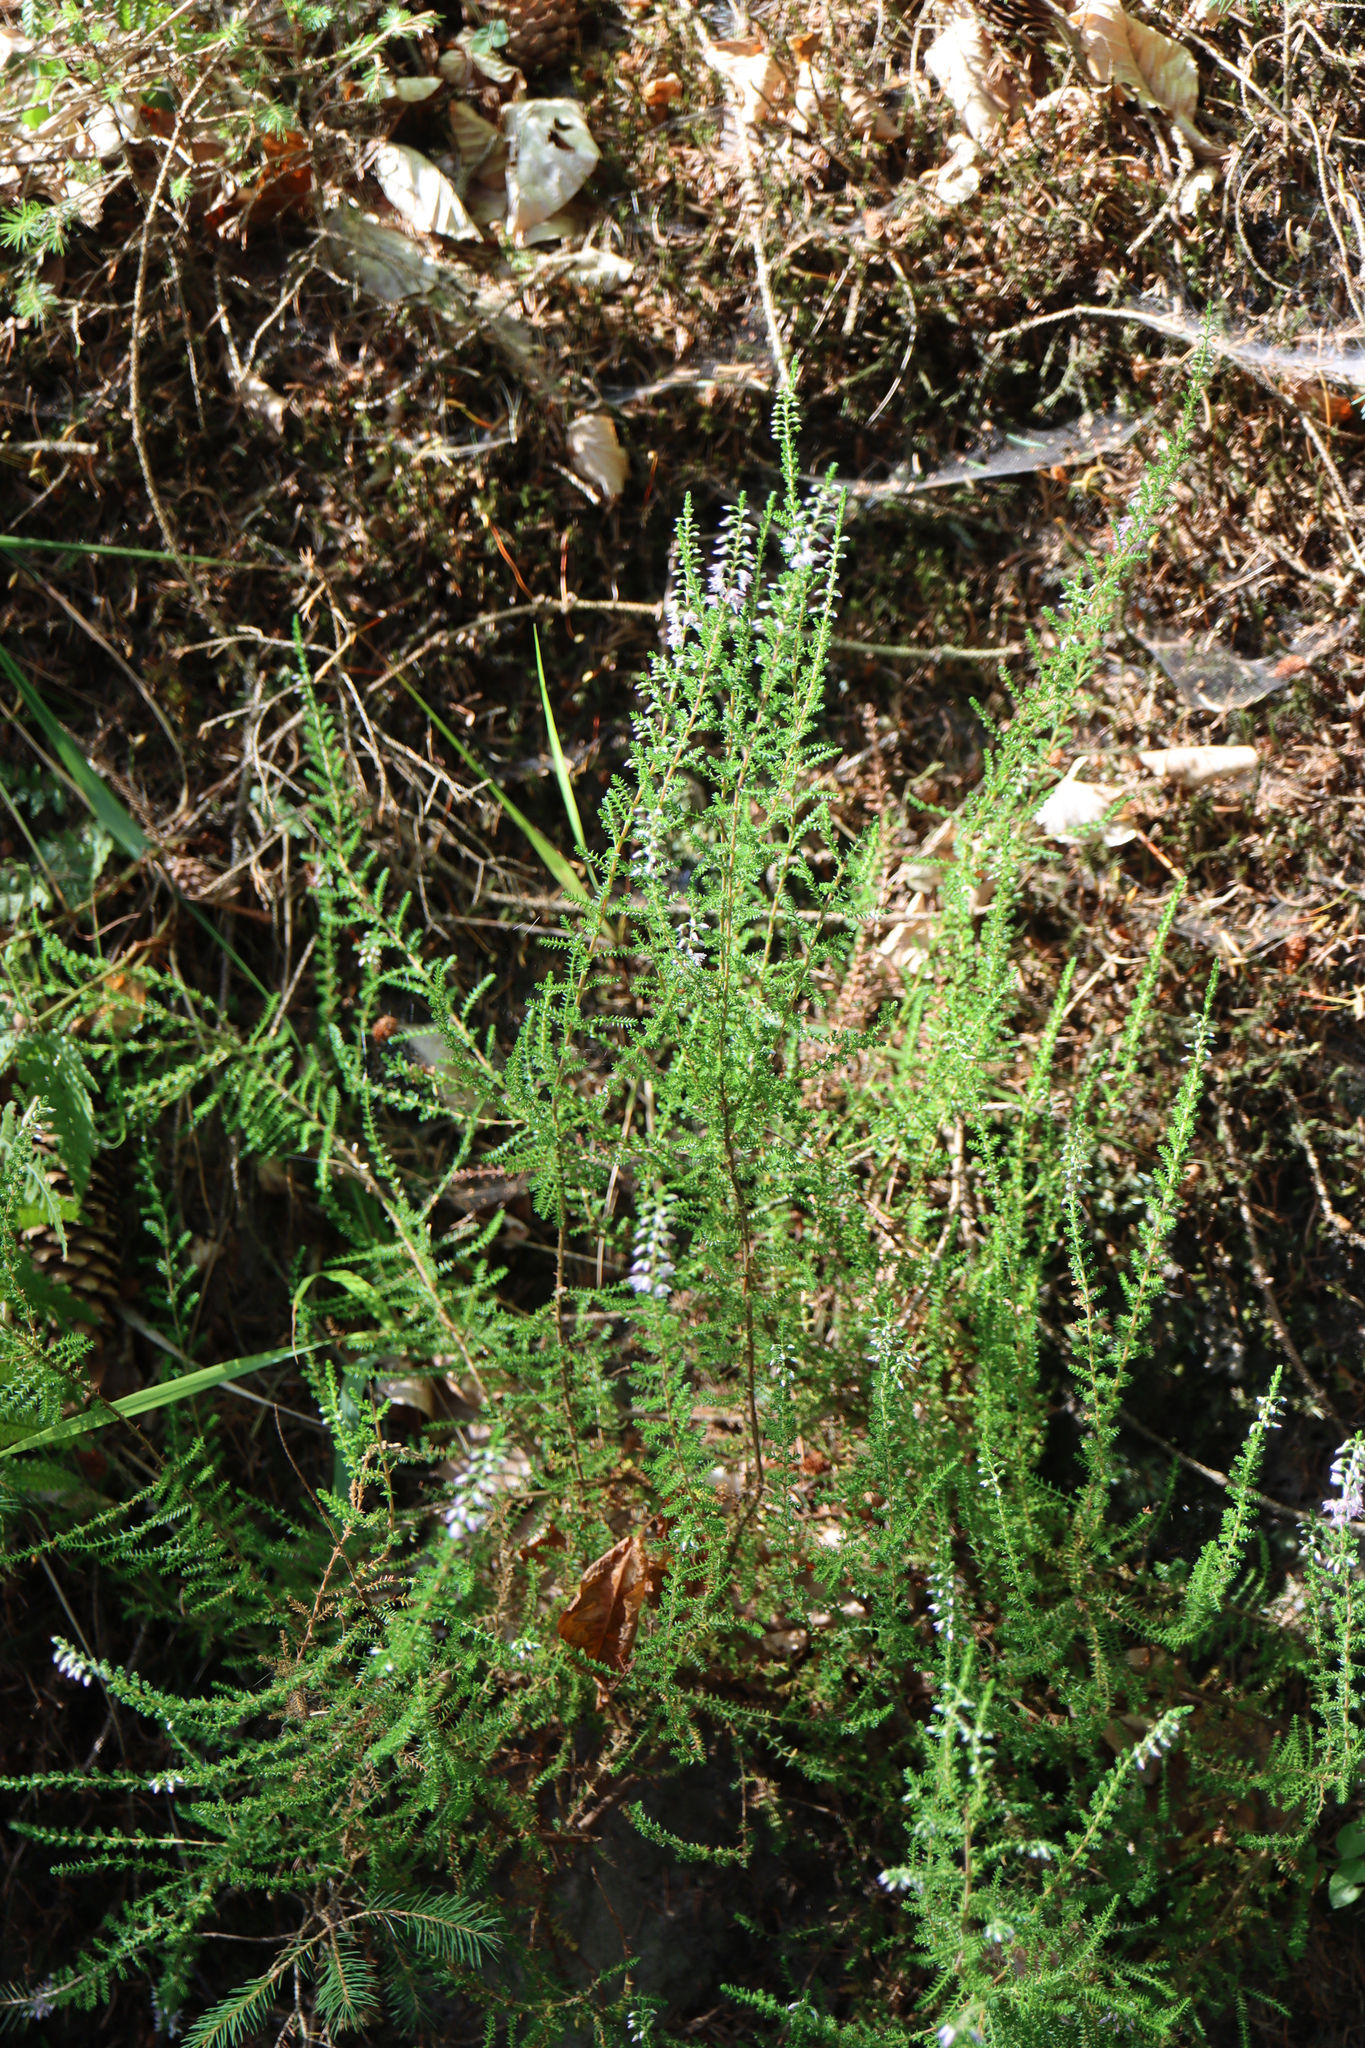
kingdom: Plantae
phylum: Tracheophyta
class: Magnoliopsida
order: Ericales
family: Ericaceae
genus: Calluna
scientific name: Calluna vulgaris
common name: Heather
